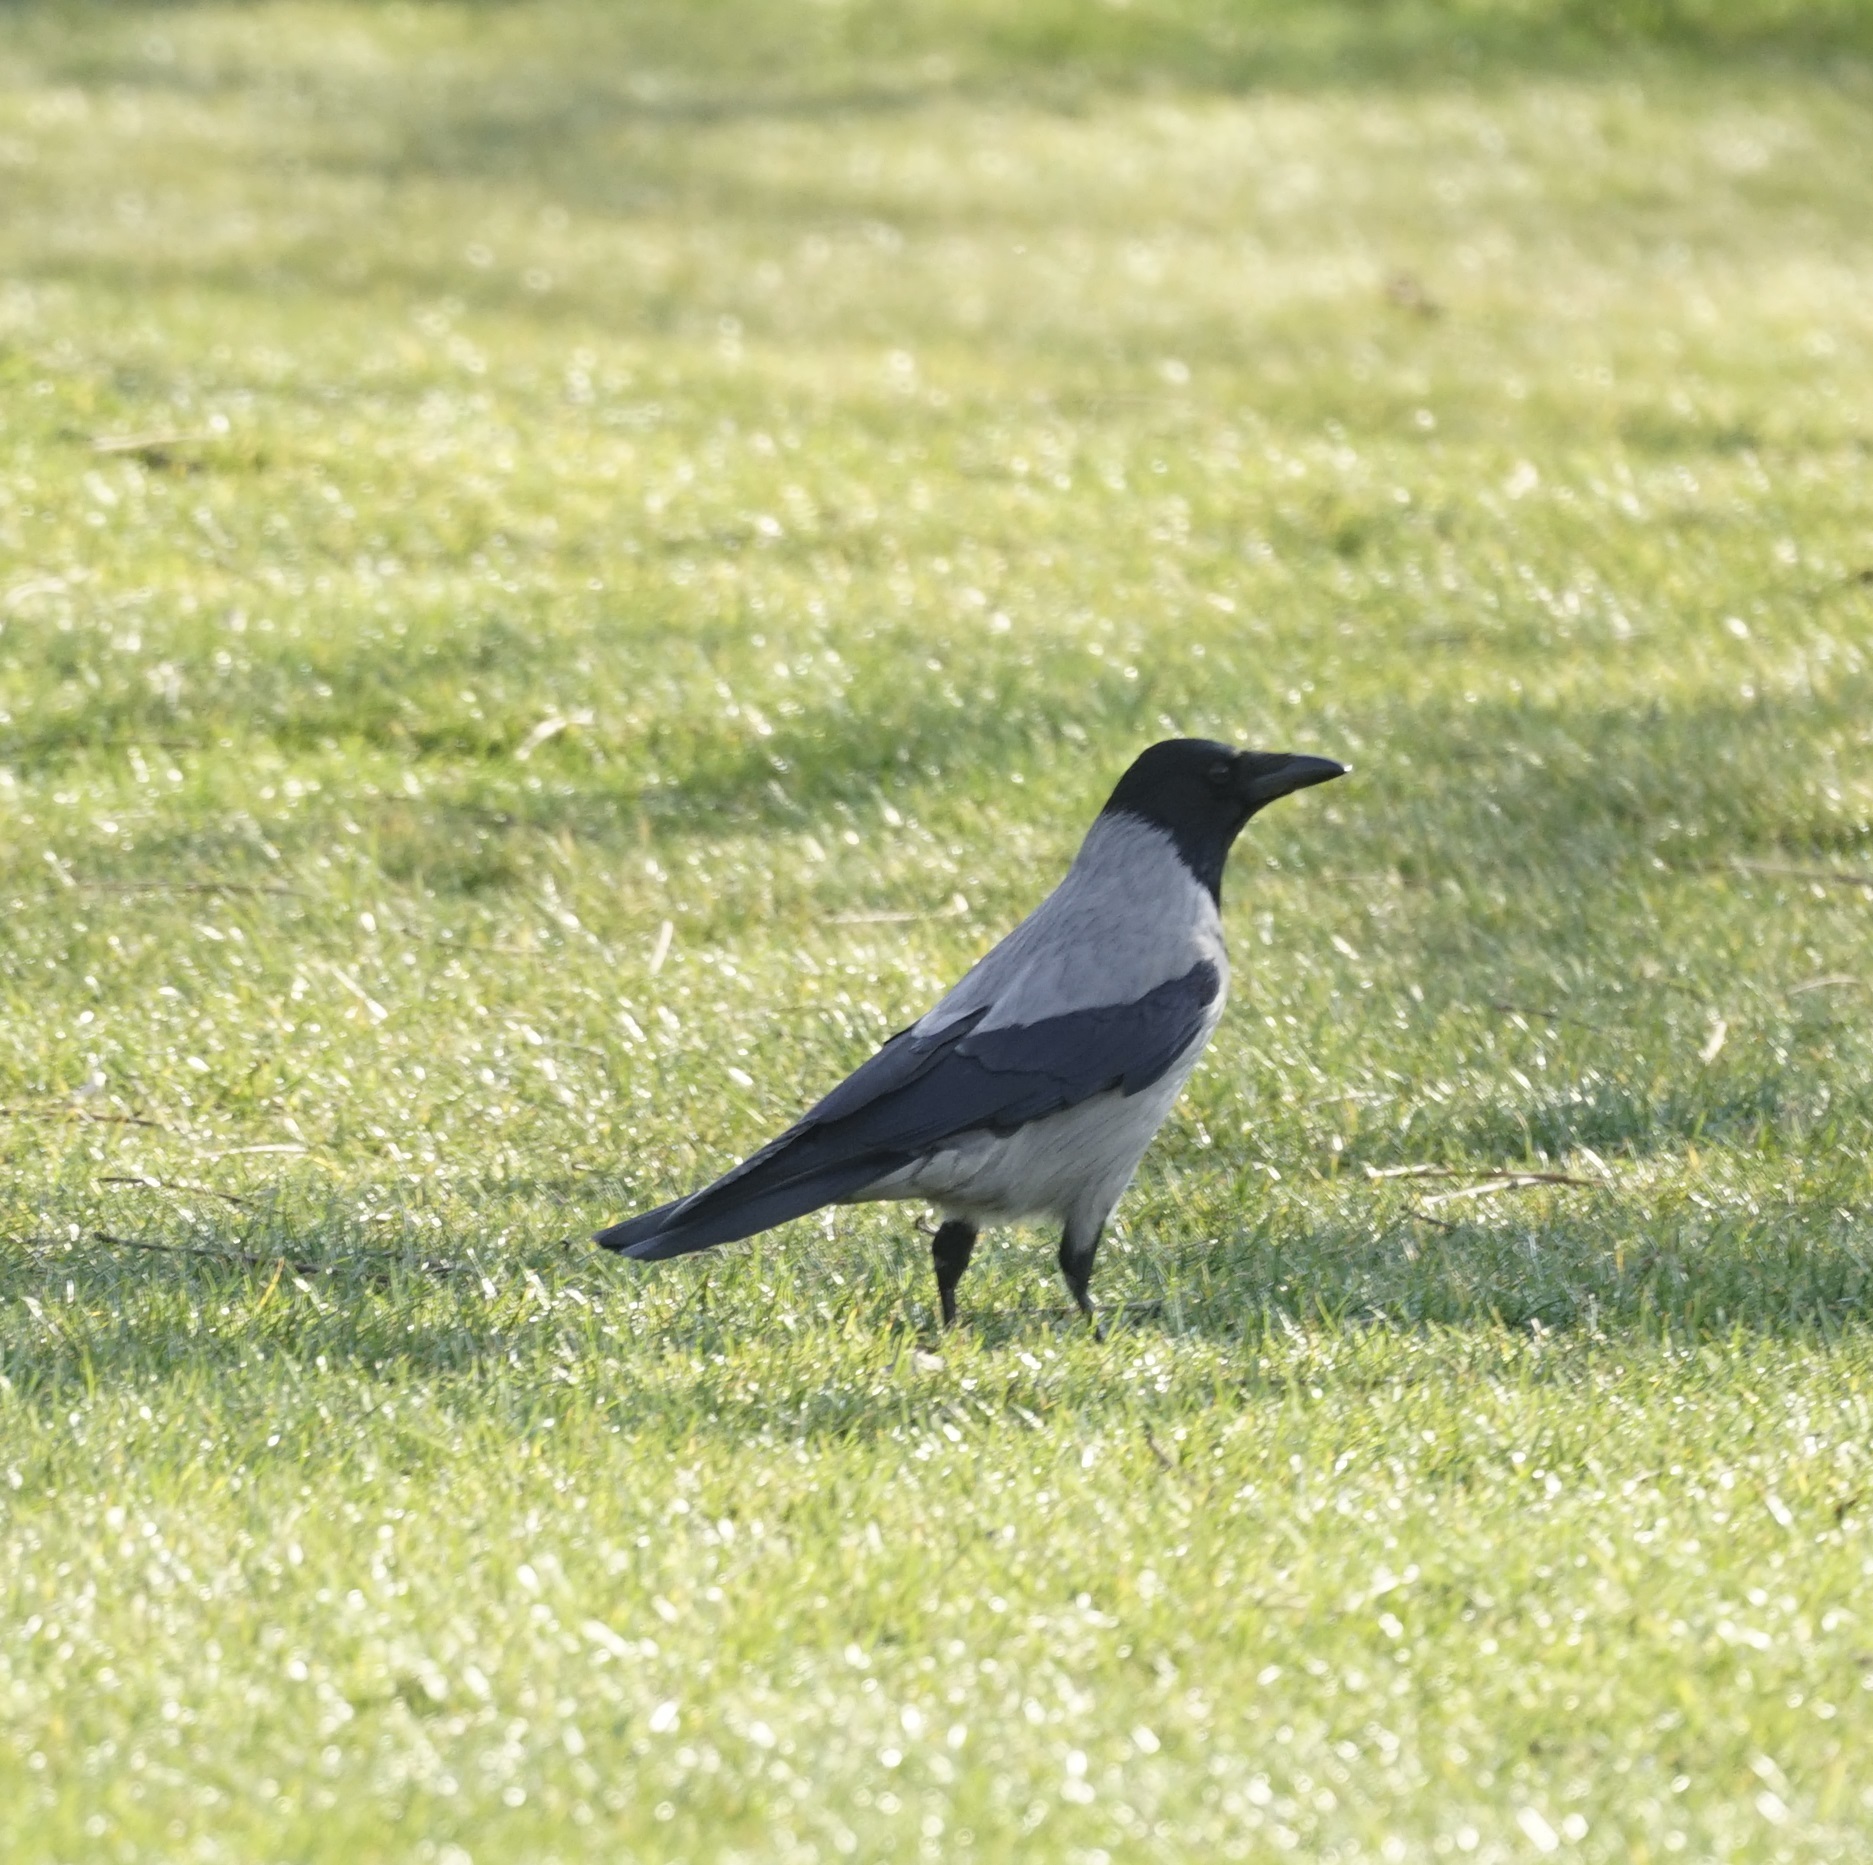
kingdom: Animalia
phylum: Chordata
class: Aves
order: Passeriformes
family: Corvidae
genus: Corvus
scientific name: Corvus cornix
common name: Hooded crow
